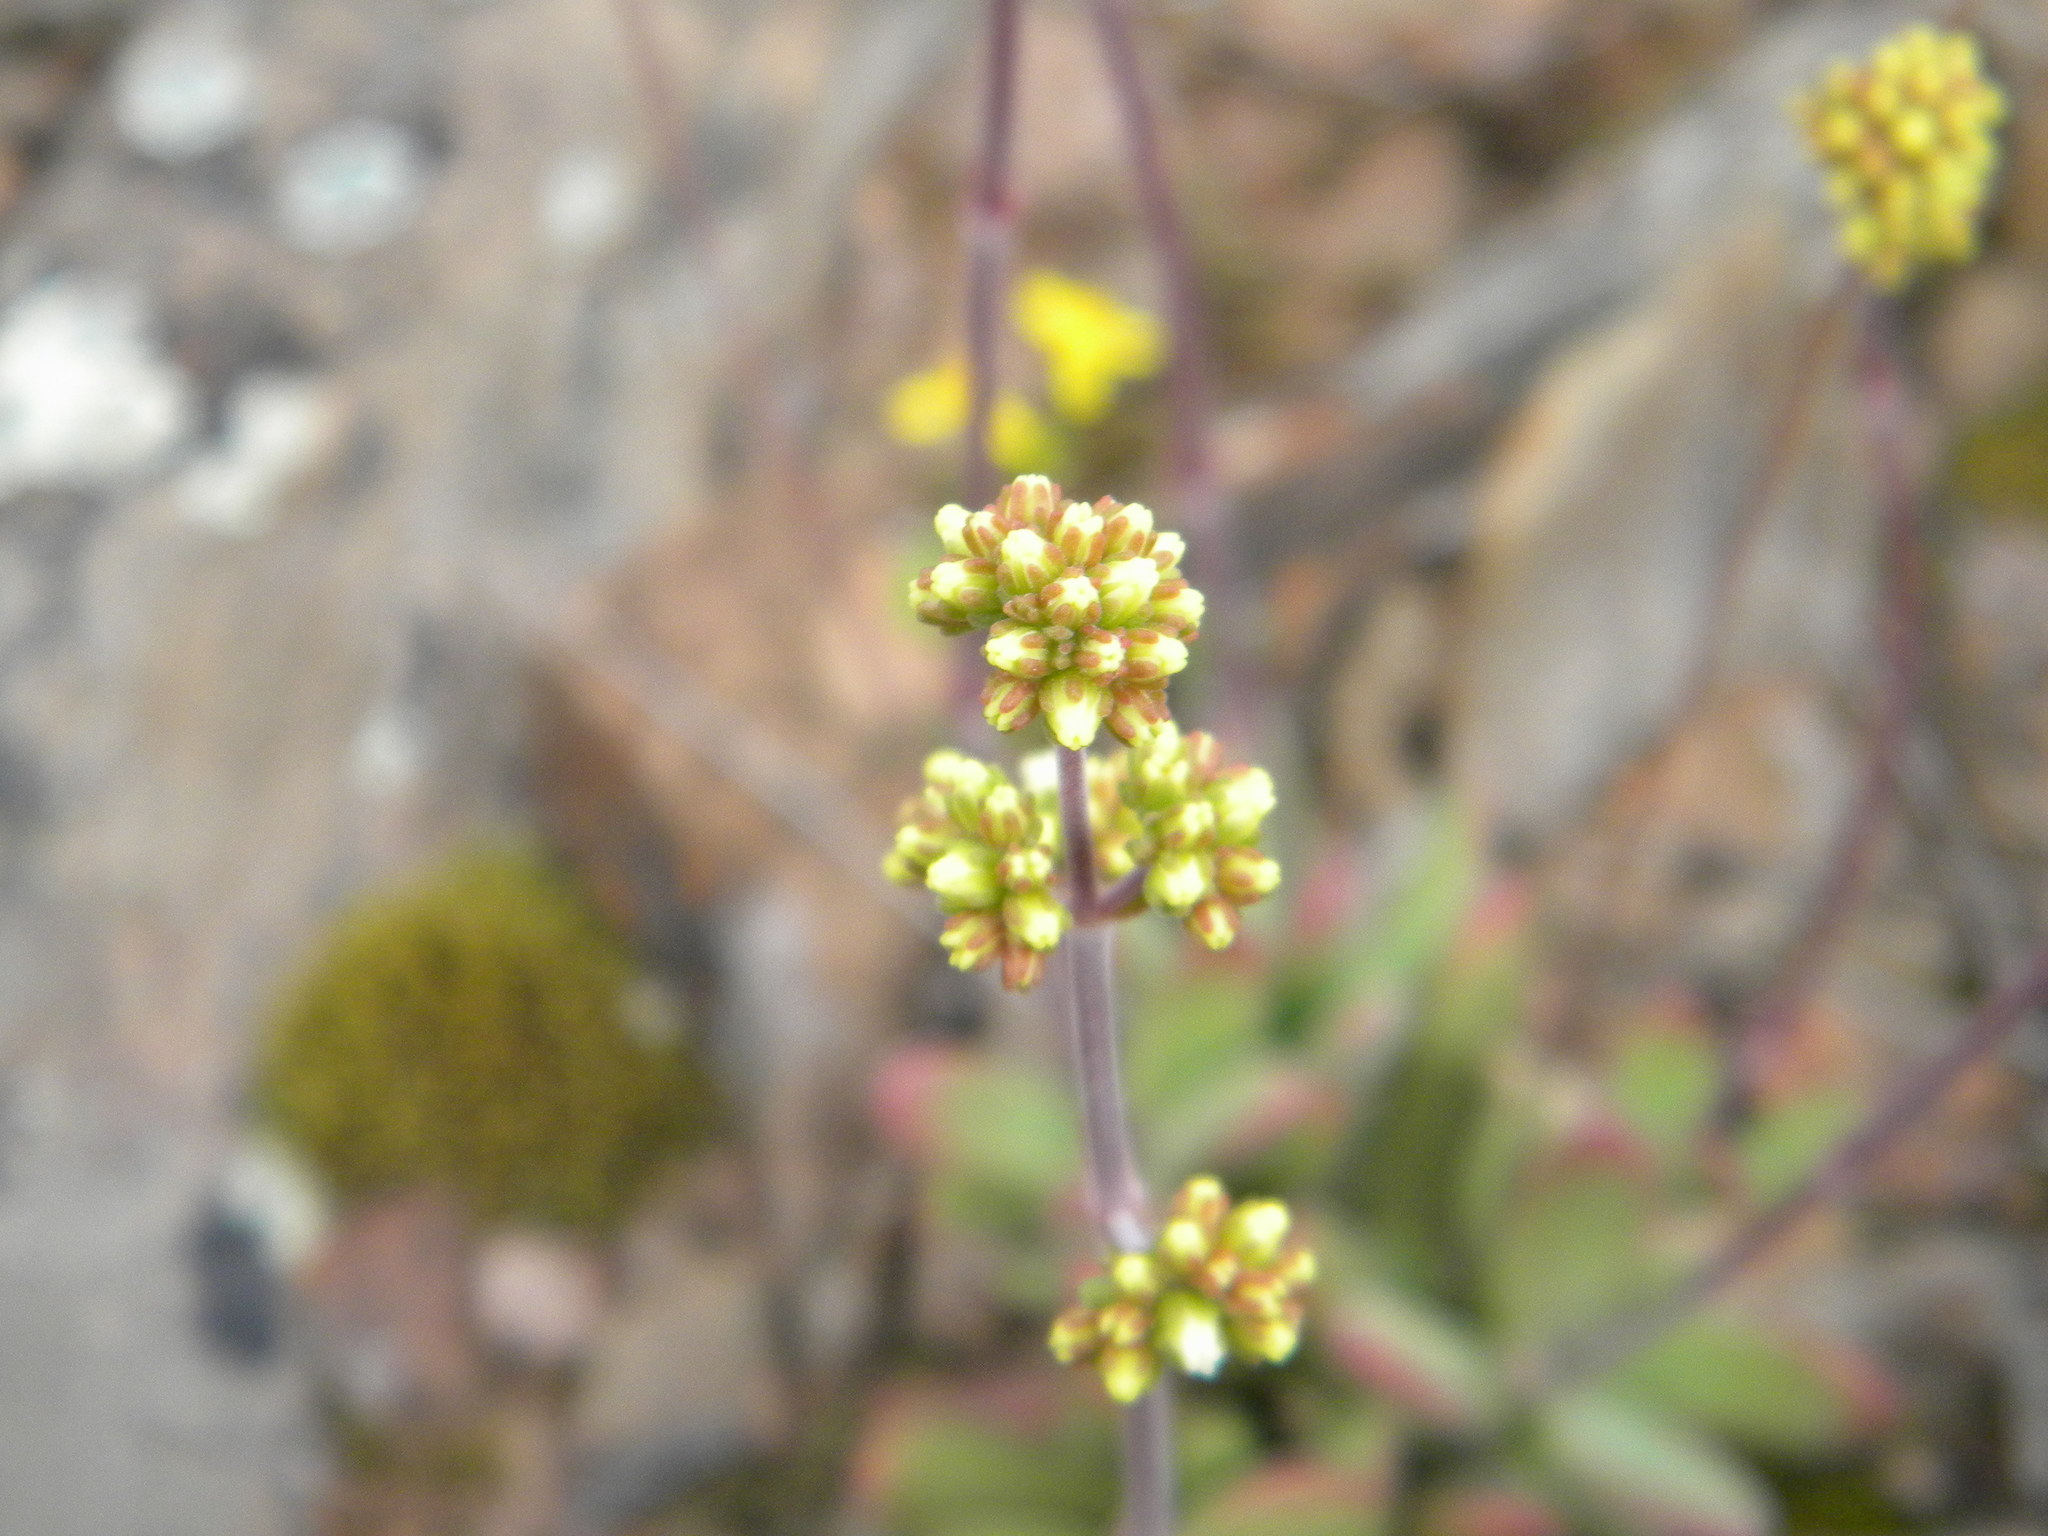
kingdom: Plantae
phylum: Tracheophyta
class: Magnoliopsida
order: Saxifragales
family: Crassulaceae
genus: Crassula
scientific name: Crassula pubescens
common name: Jersey pigmyweed
